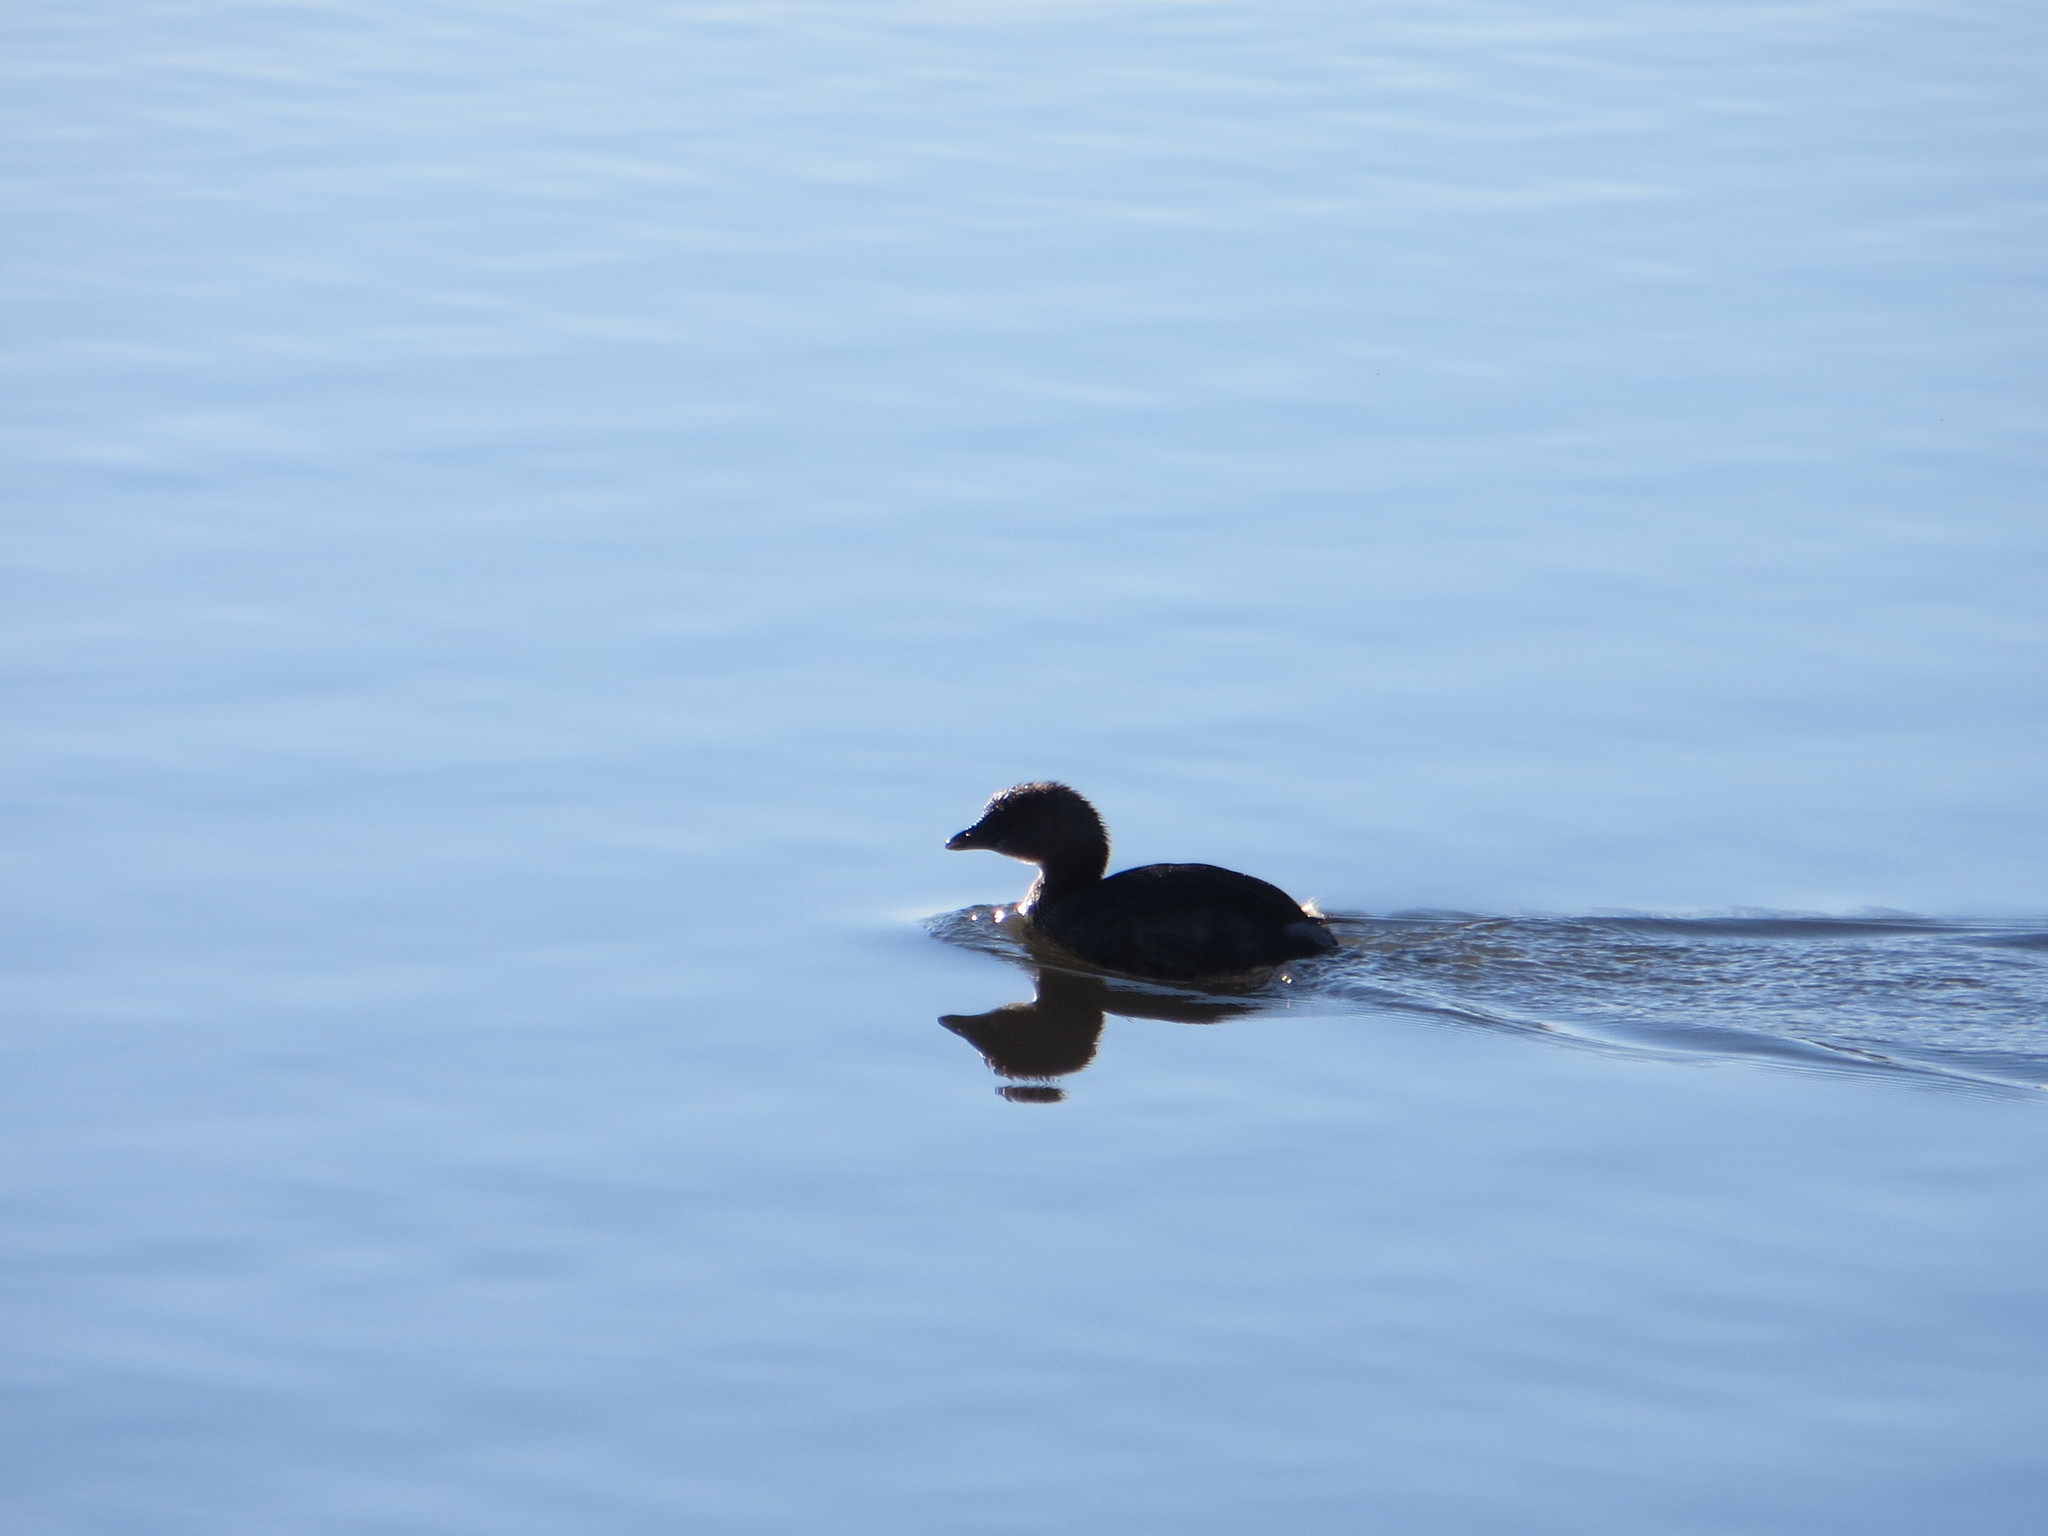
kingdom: Animalia
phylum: Chordata
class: Aves
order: Podicipediformes
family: Podicipedidae
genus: Podilymbus
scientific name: Podilymbus podiceps
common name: Pied-billed grebe
